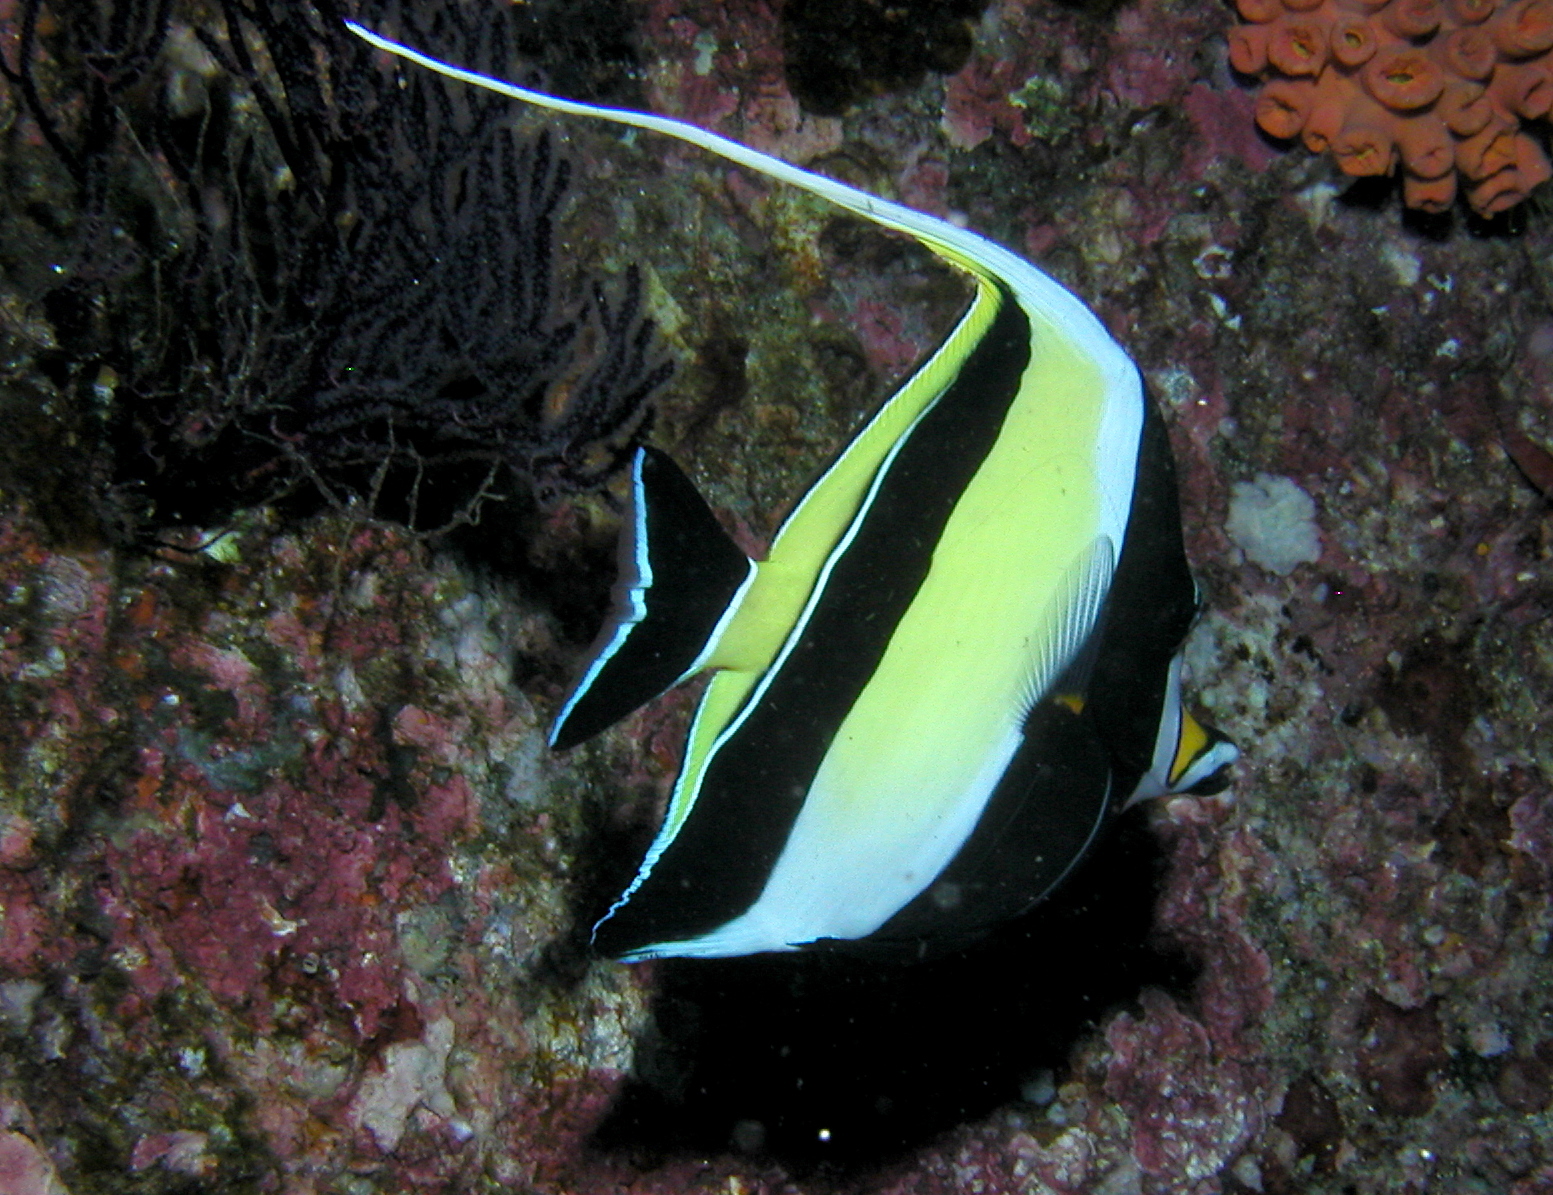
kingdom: Animalia
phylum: Chordata
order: Perciformes
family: Zanclidae
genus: Zanclus
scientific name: Zanclus cornutus
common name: Moorish idol
